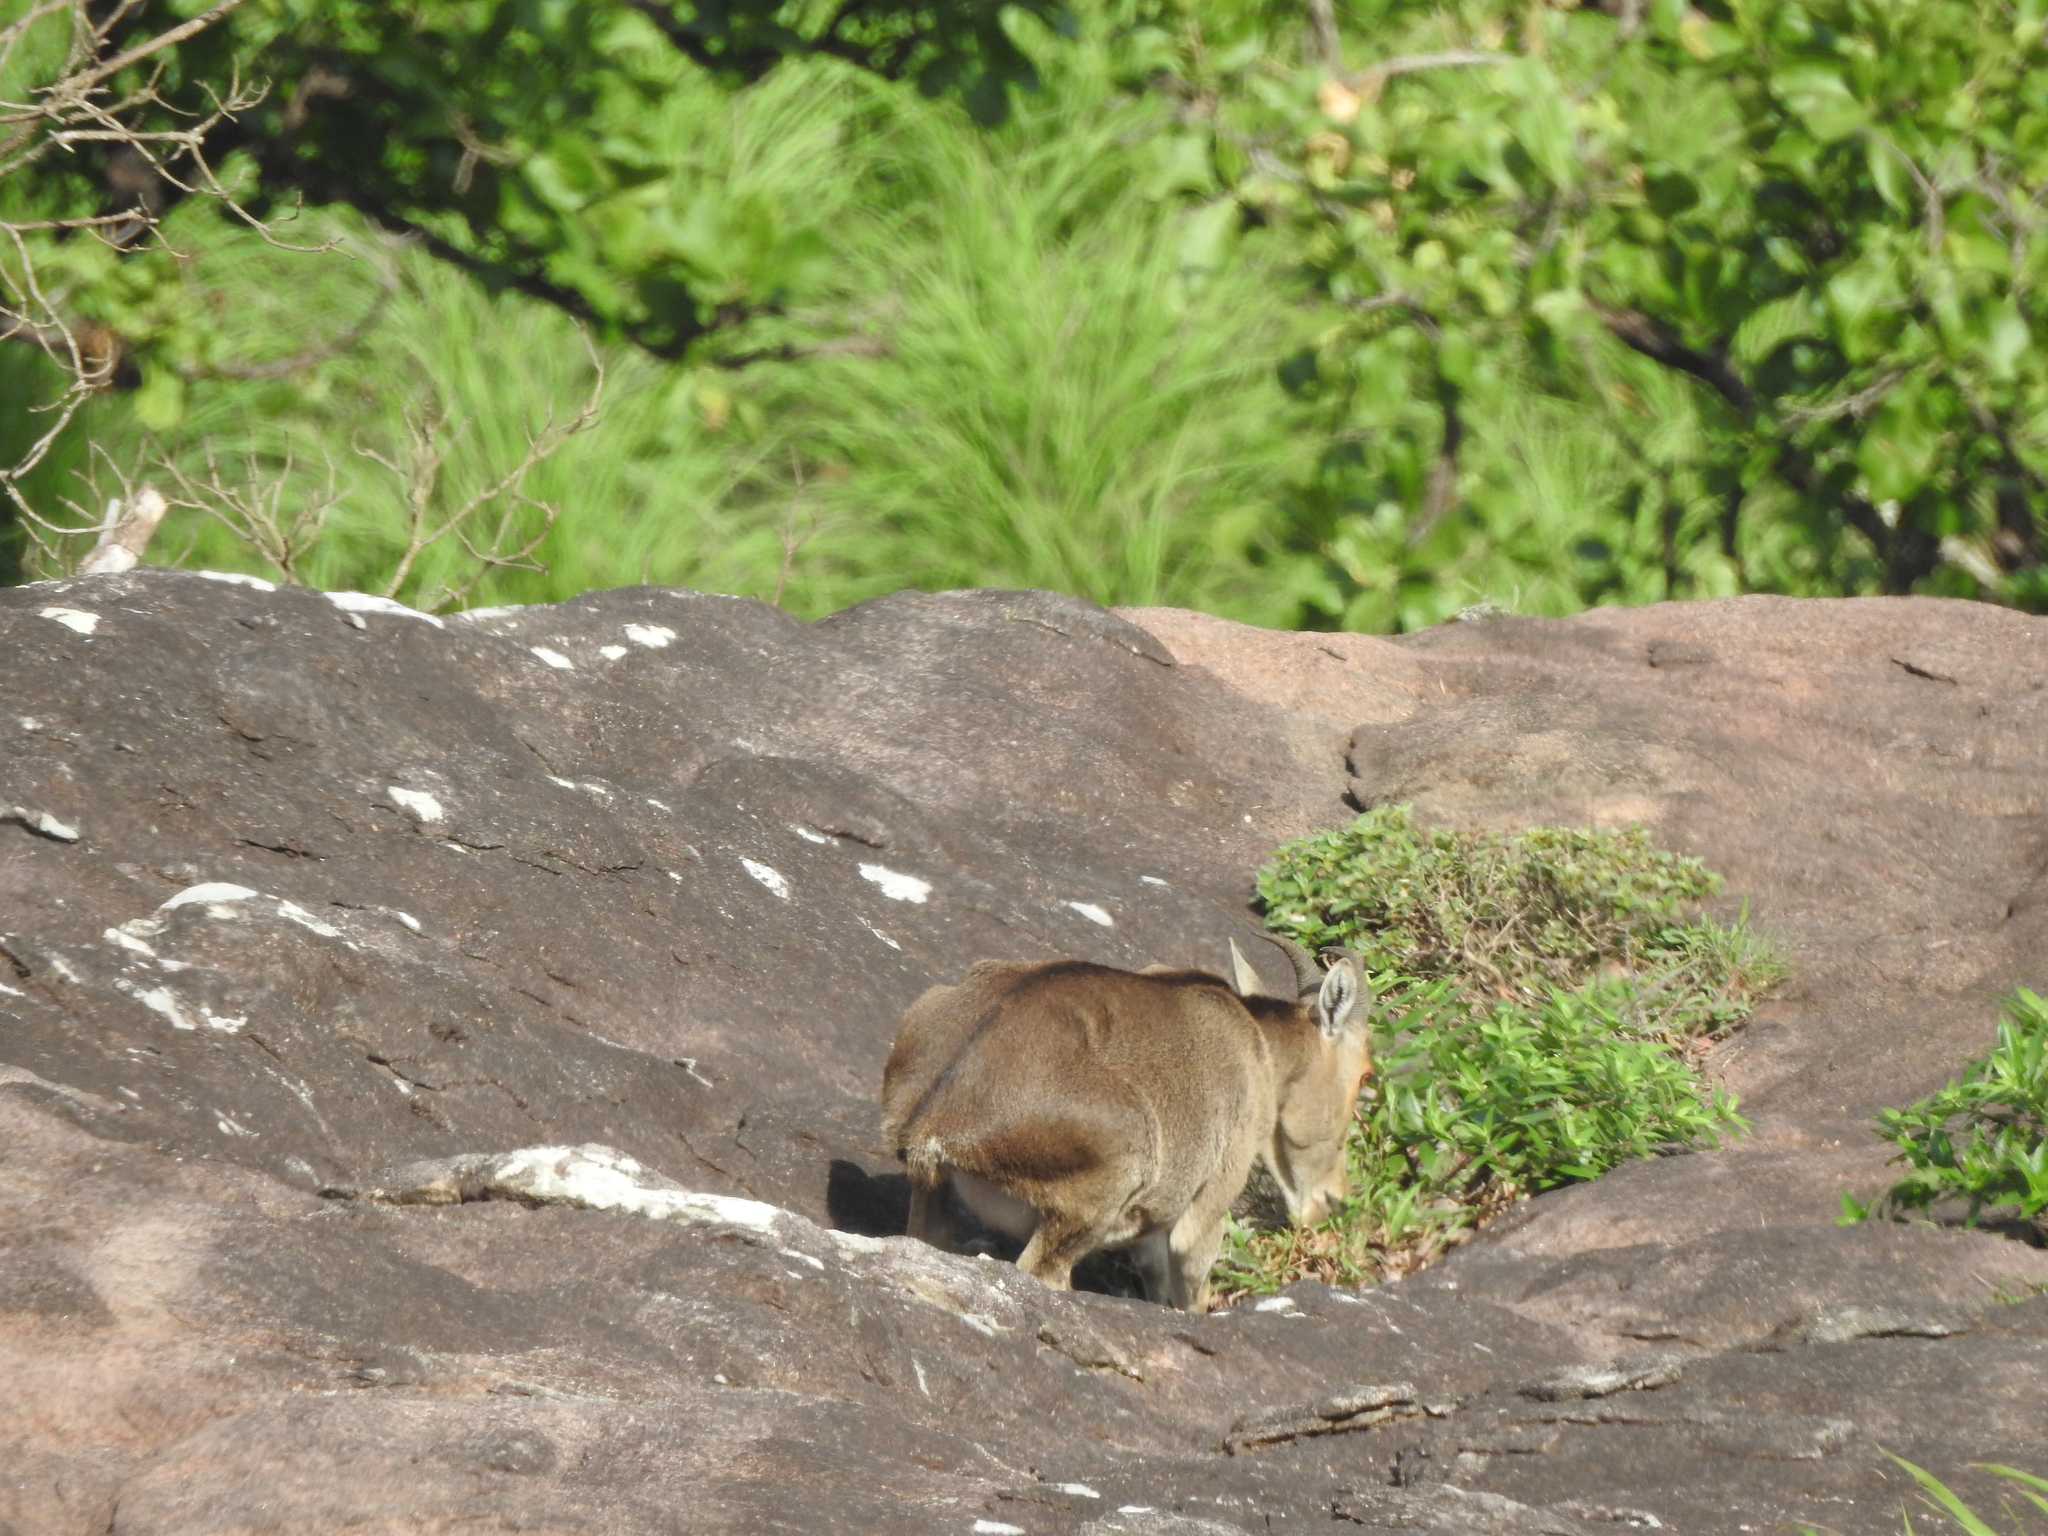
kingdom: Animalia
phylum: Chordata
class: Mammalia
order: Artiodactyla
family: Bovidae
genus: Hemitragus
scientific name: Hemitragus hylocrius
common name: Nilgiri tahr
